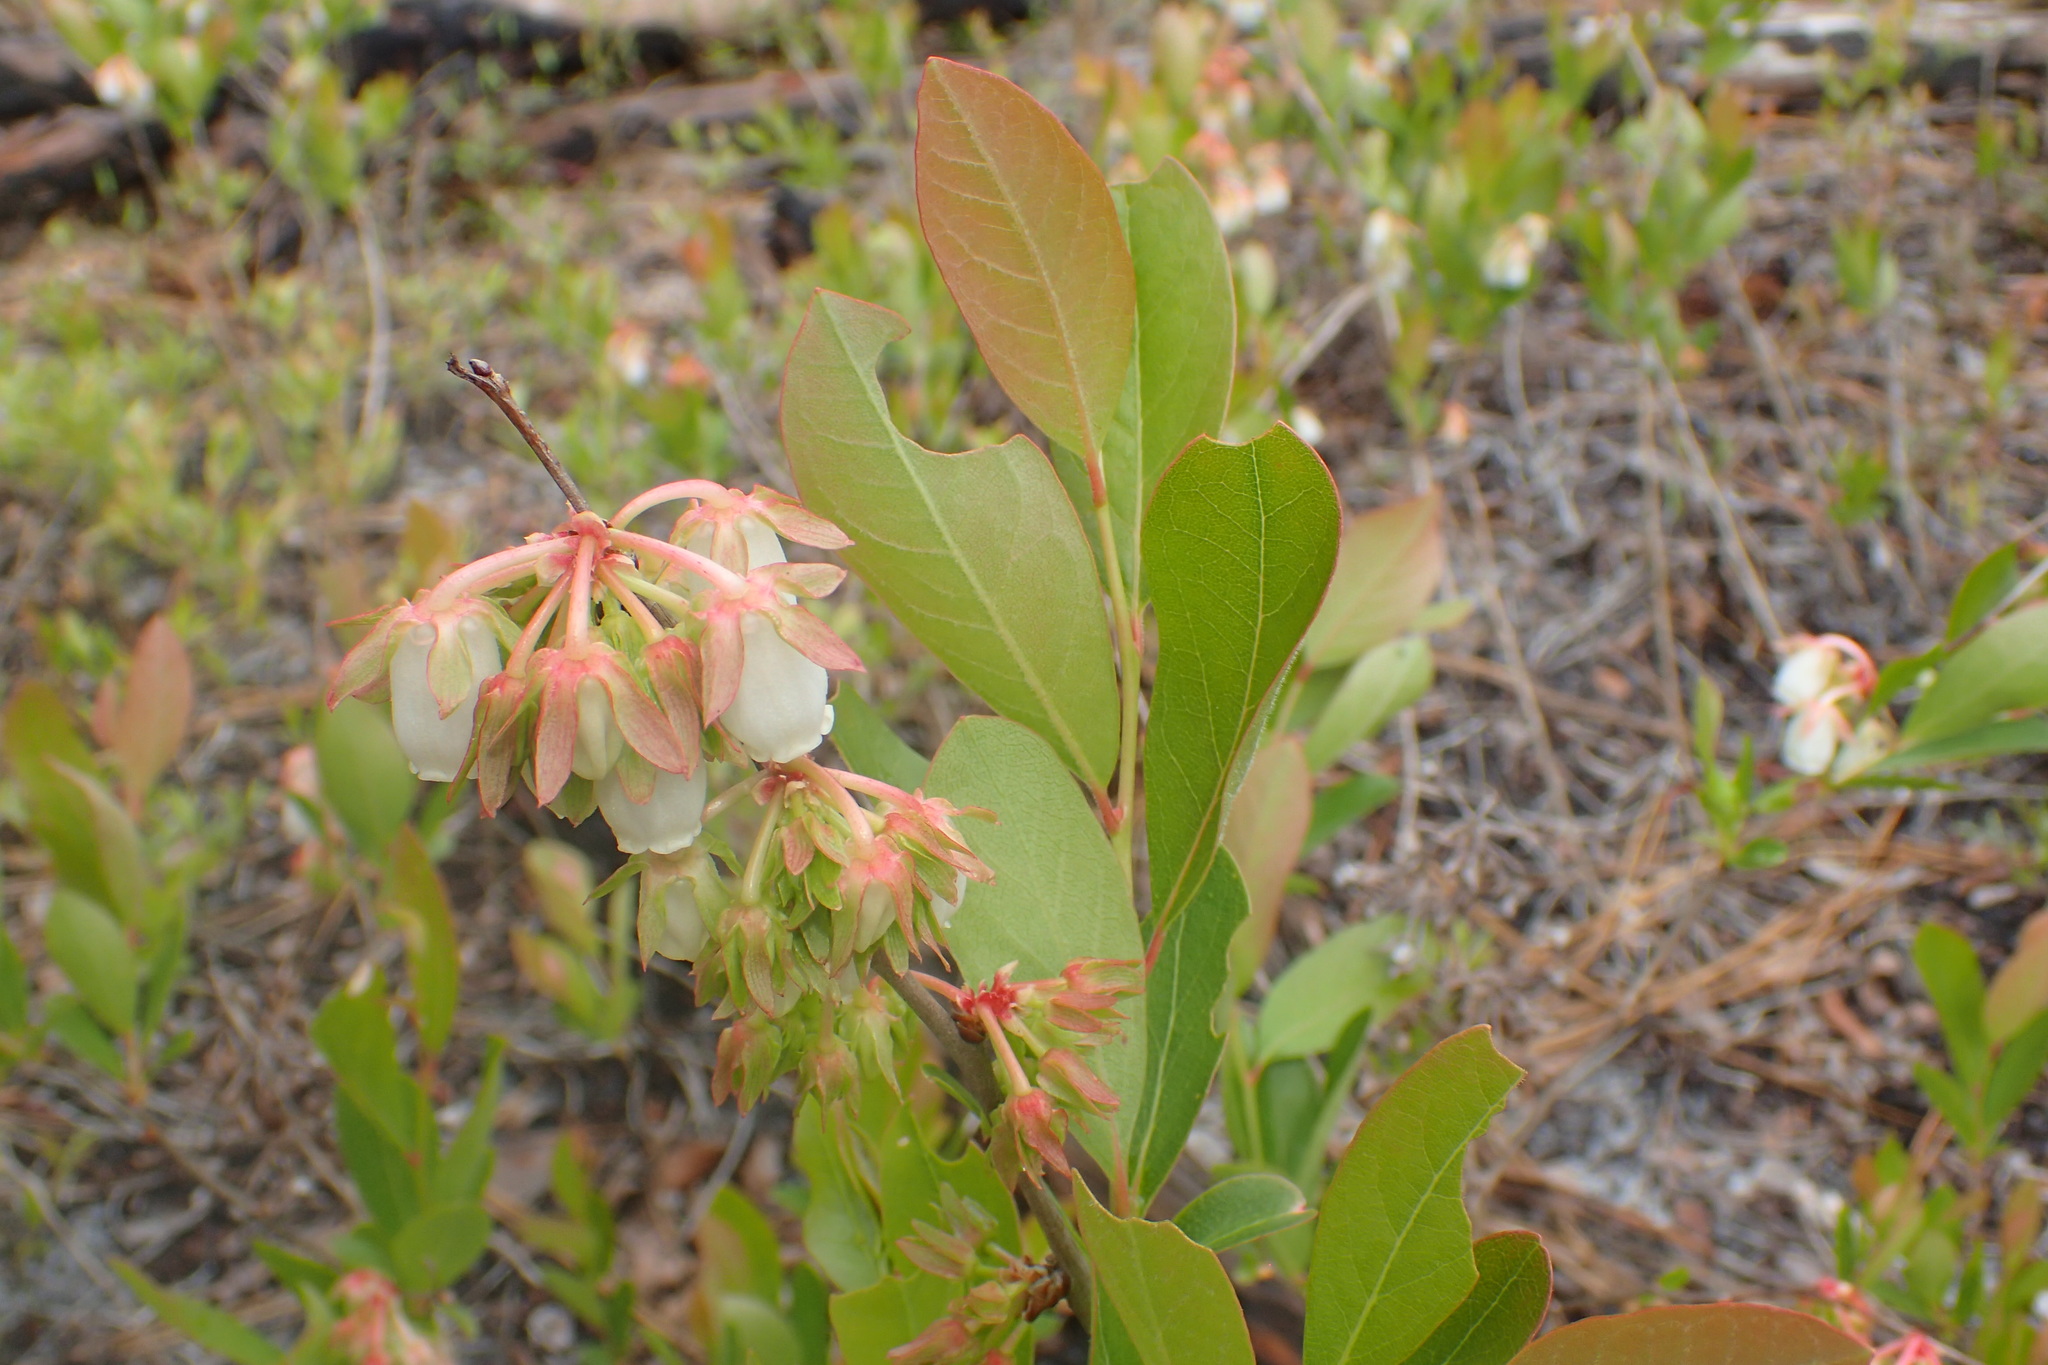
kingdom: Plantae
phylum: Tracheophyta
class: Magnoliopsida
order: Ericales
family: Ericaceae
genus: Lyonia
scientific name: Lyonia mariana
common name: Staggerbush
